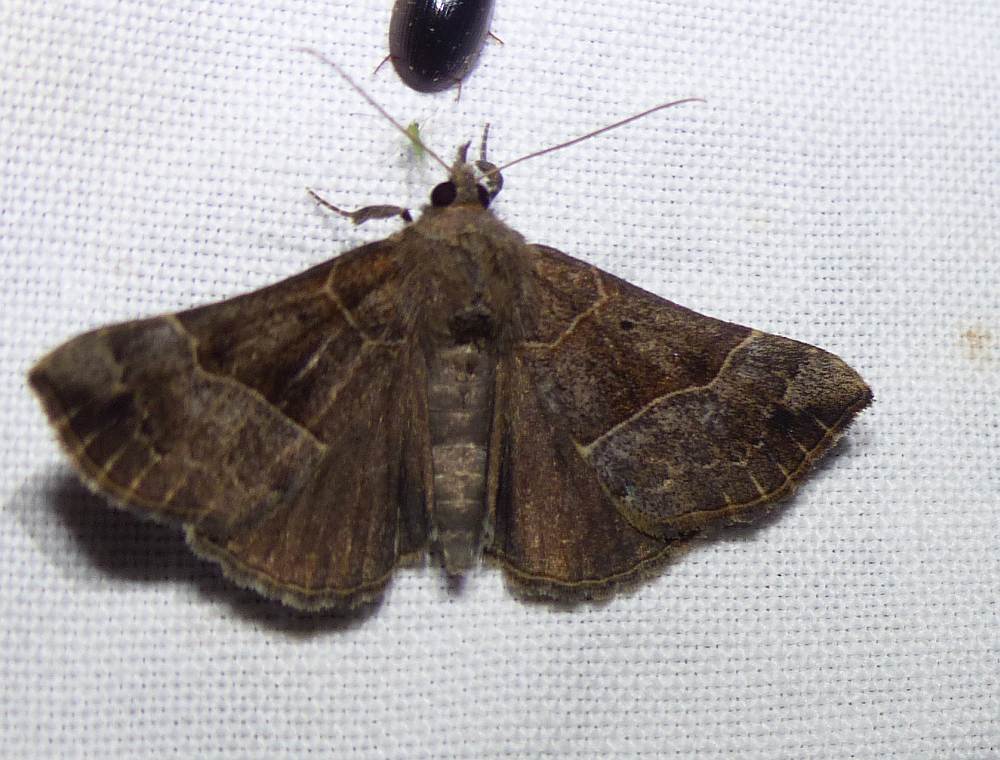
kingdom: Animalia
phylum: Arthropoda
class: Insecta
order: Lepidoptera
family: Erebidae
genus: Hypena
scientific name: Hypena deceptalis
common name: Deceptive snout
